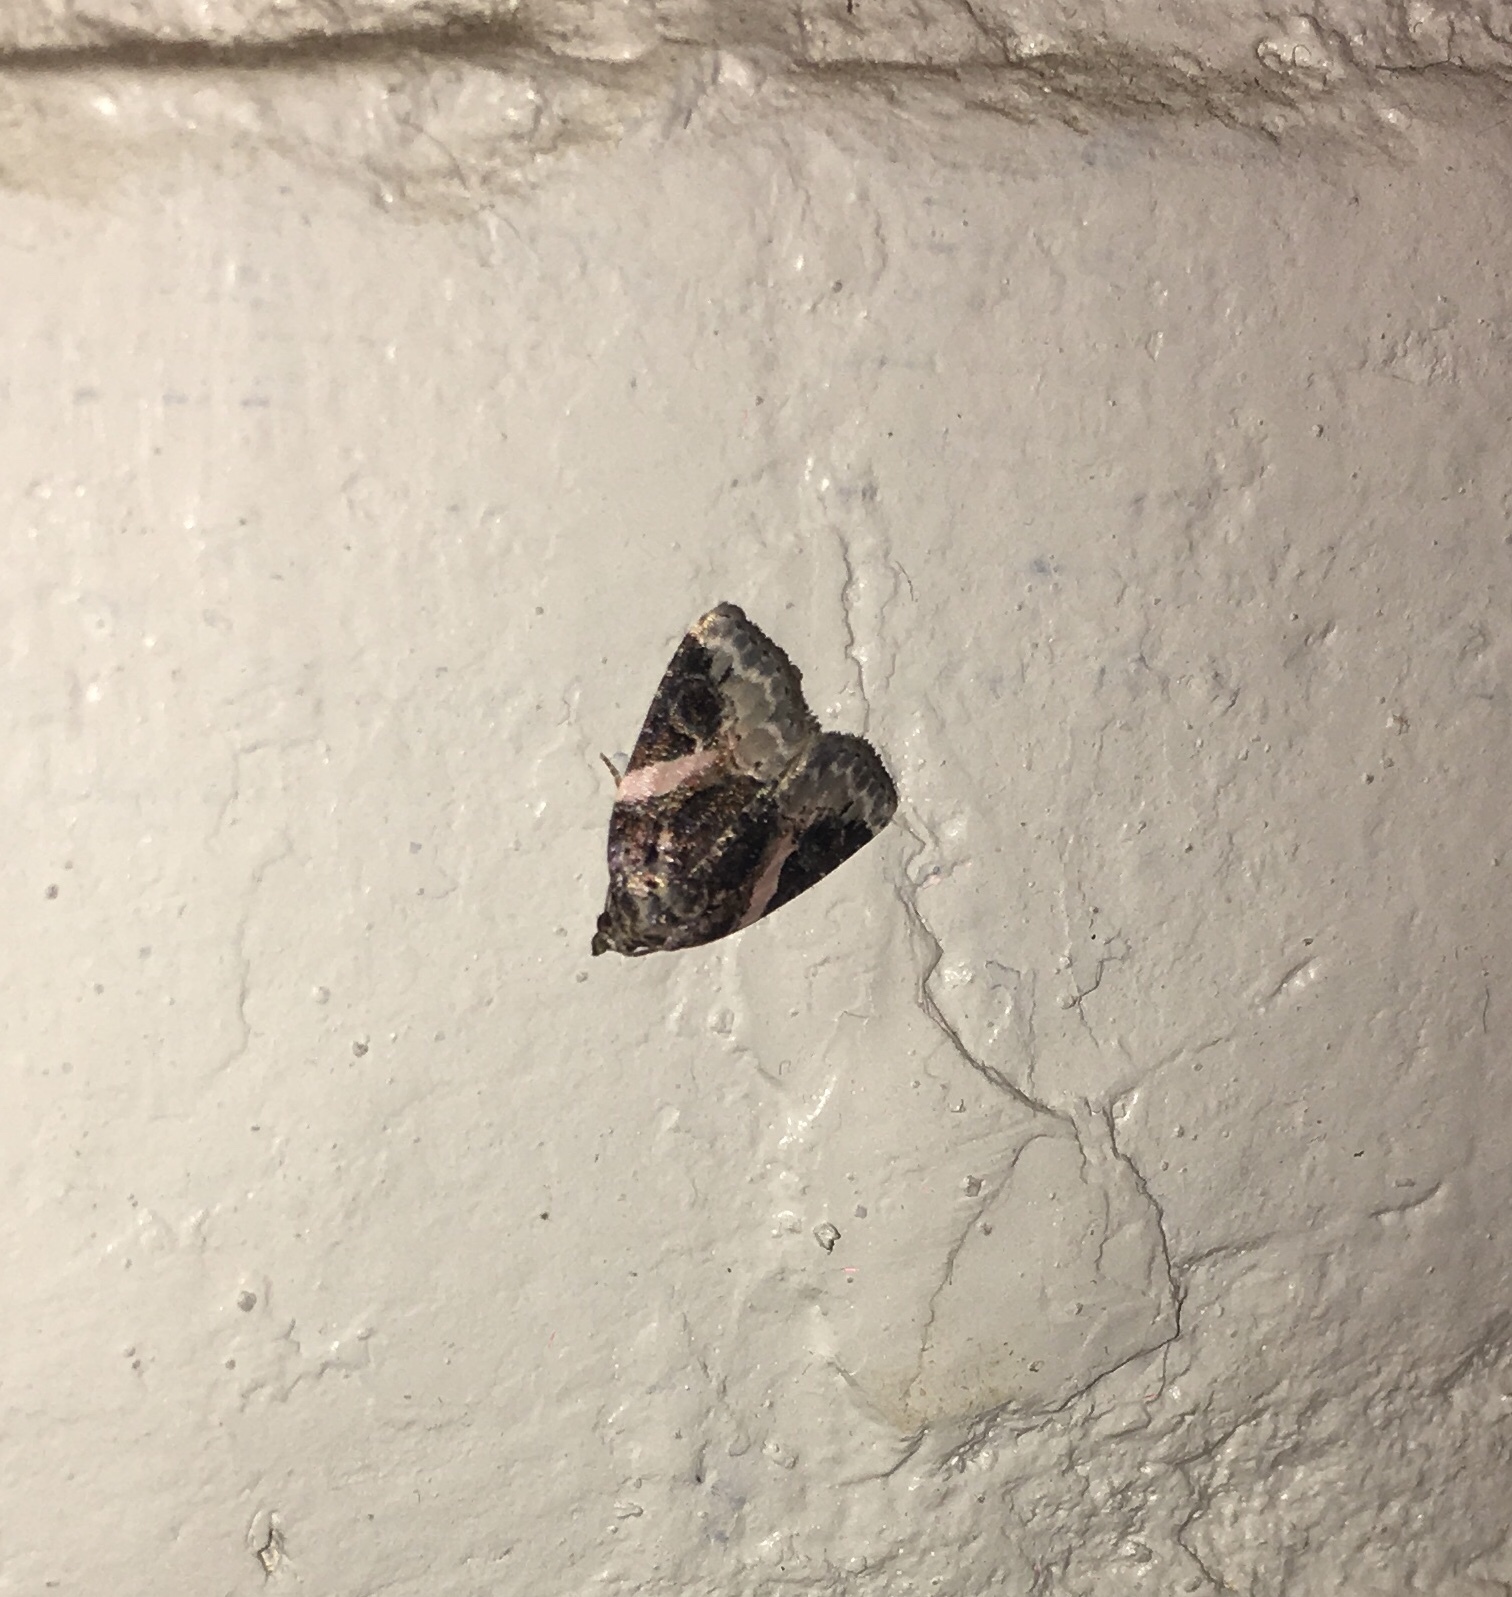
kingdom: Animalia
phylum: Arthropoda
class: Insecta
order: Lepidoptera
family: Noctuidae
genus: Pseudeustrotia
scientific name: Pseudeustrotia carneola
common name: Pink-barred lithacodia moth
